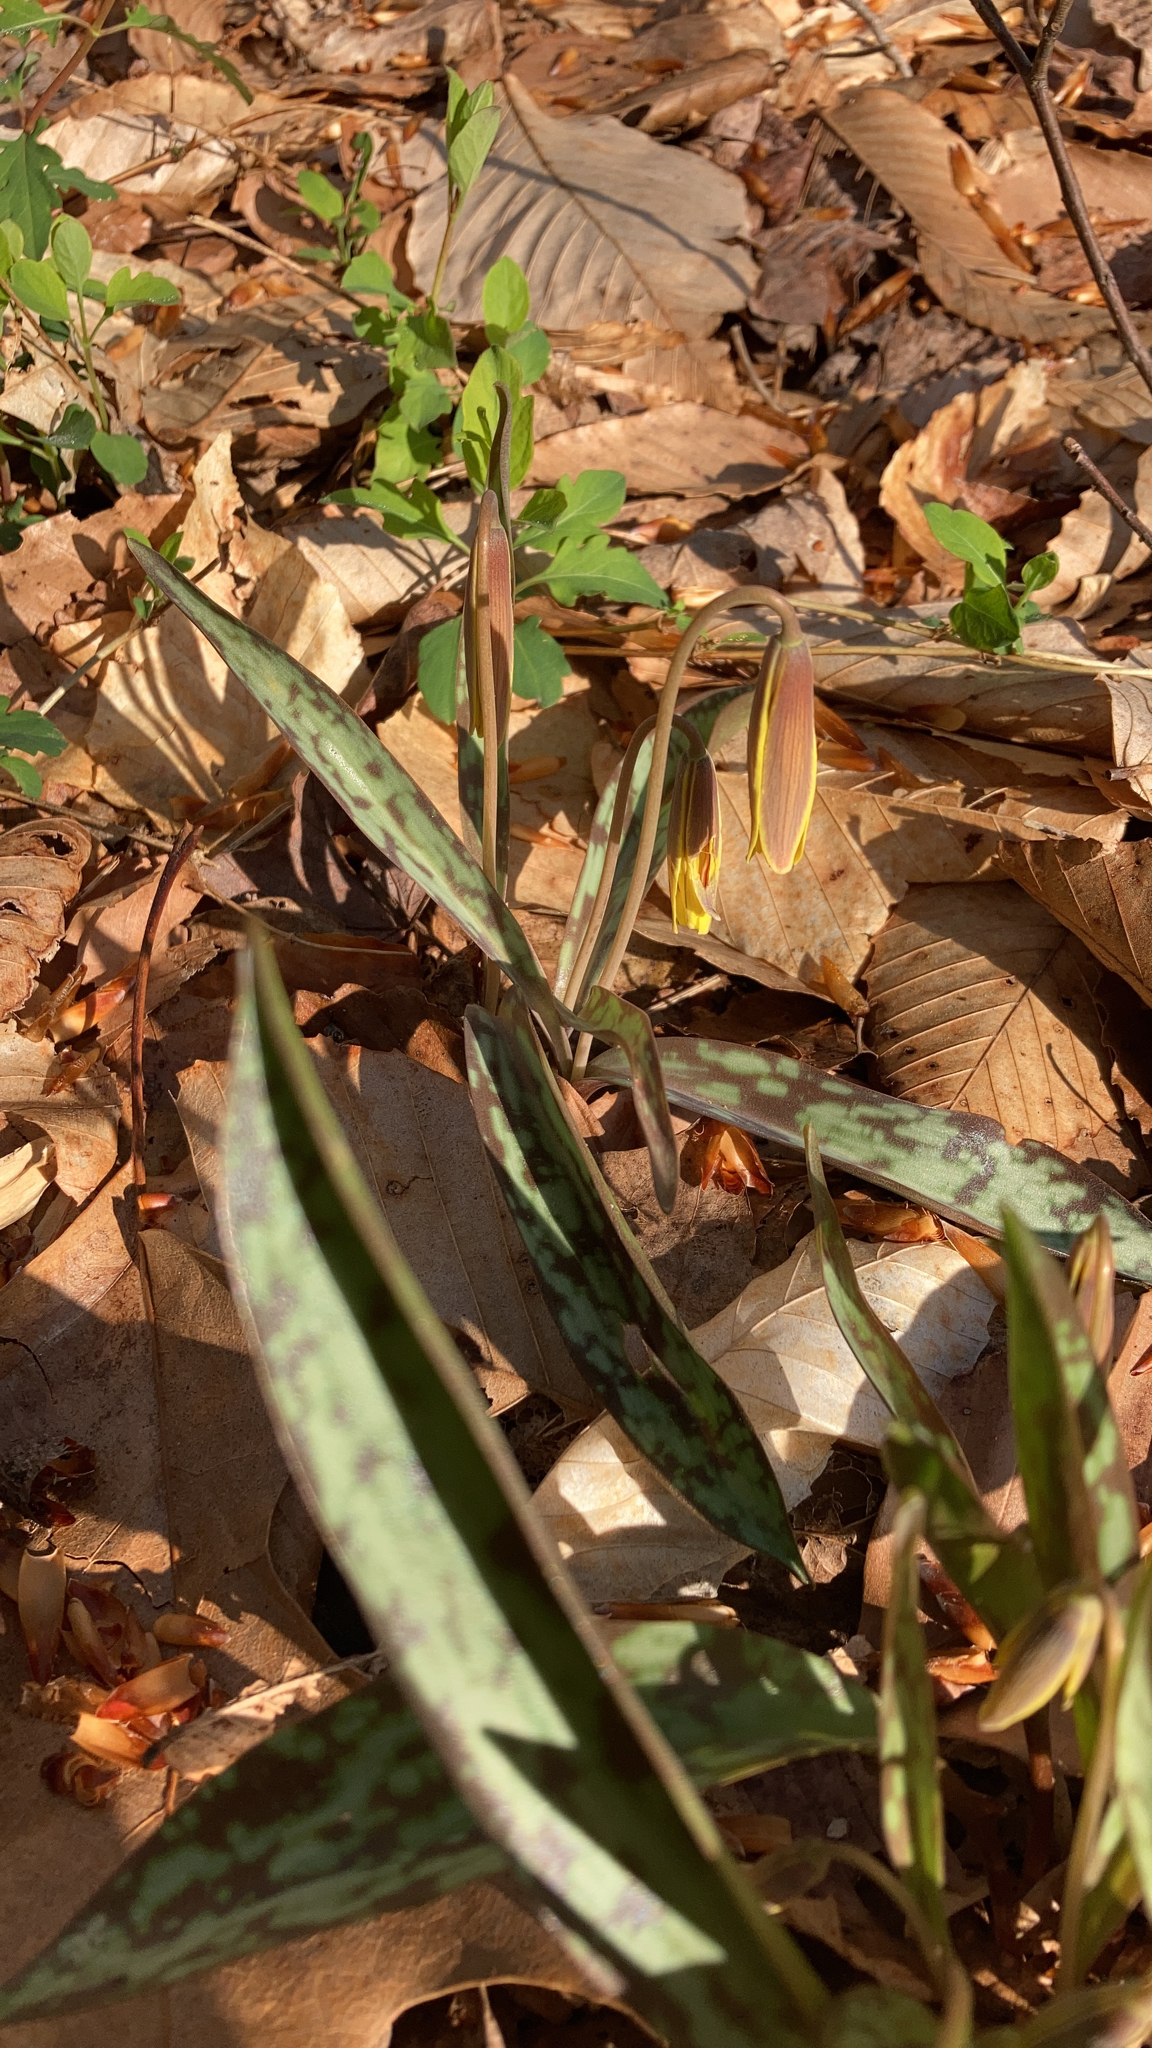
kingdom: Plantae
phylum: Tracheophyta
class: Liliopsida
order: Liliales
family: Liliaceae
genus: Erythronium
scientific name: Erythronium americanum
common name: Yellow adder's-tongue
